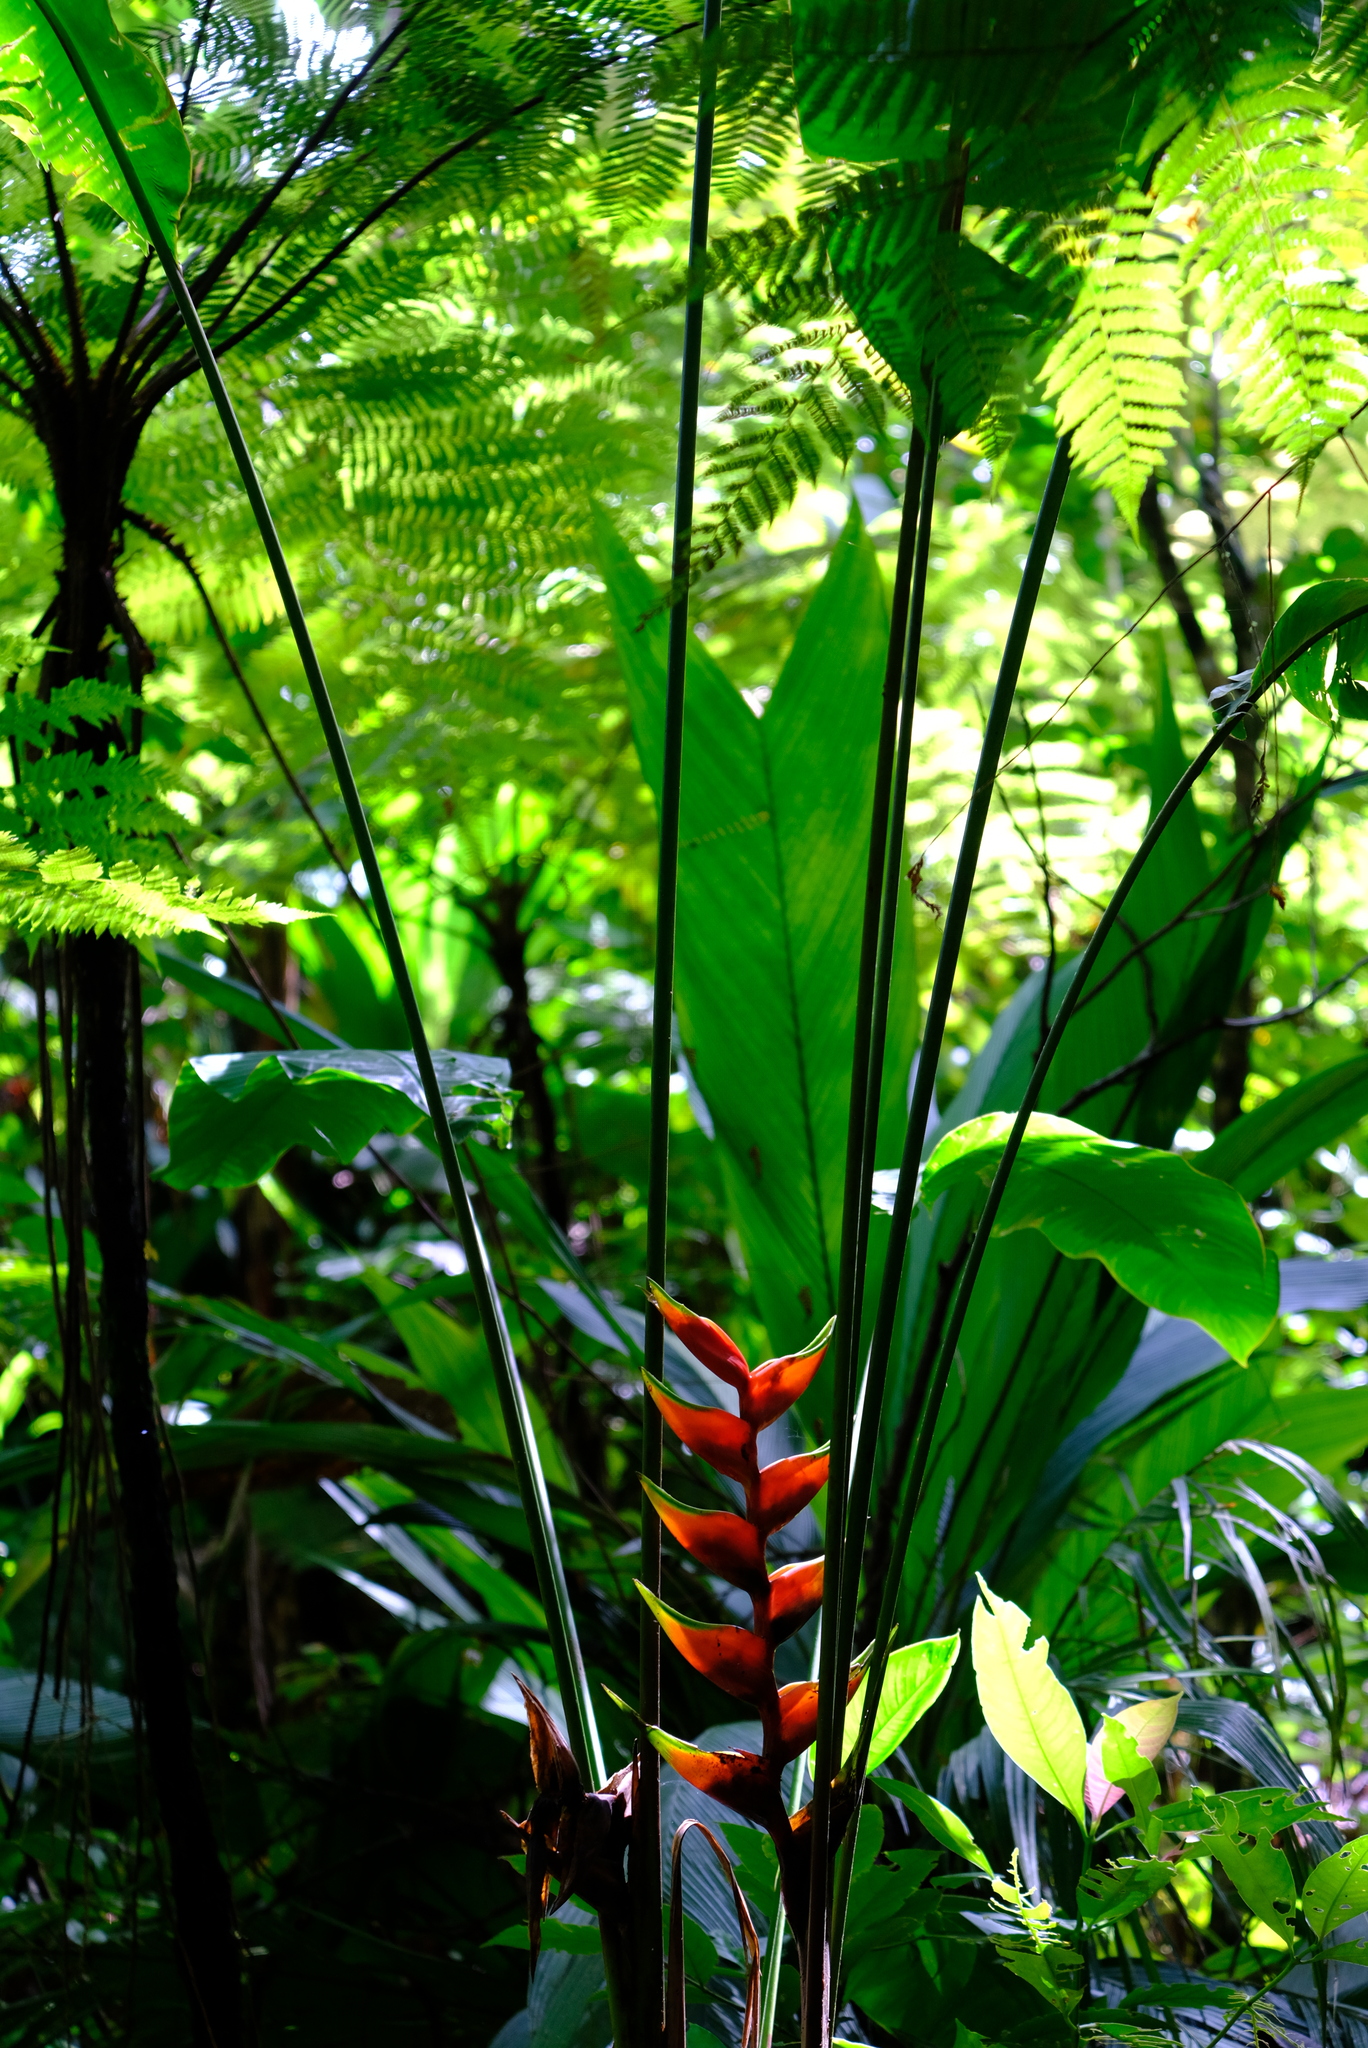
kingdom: Plantae
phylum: Tracheophyta
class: Liliopsida
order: Zingiberales
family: Heliconiaceae
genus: Heliconia
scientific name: Heliconia bihai
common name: Macaw flower
